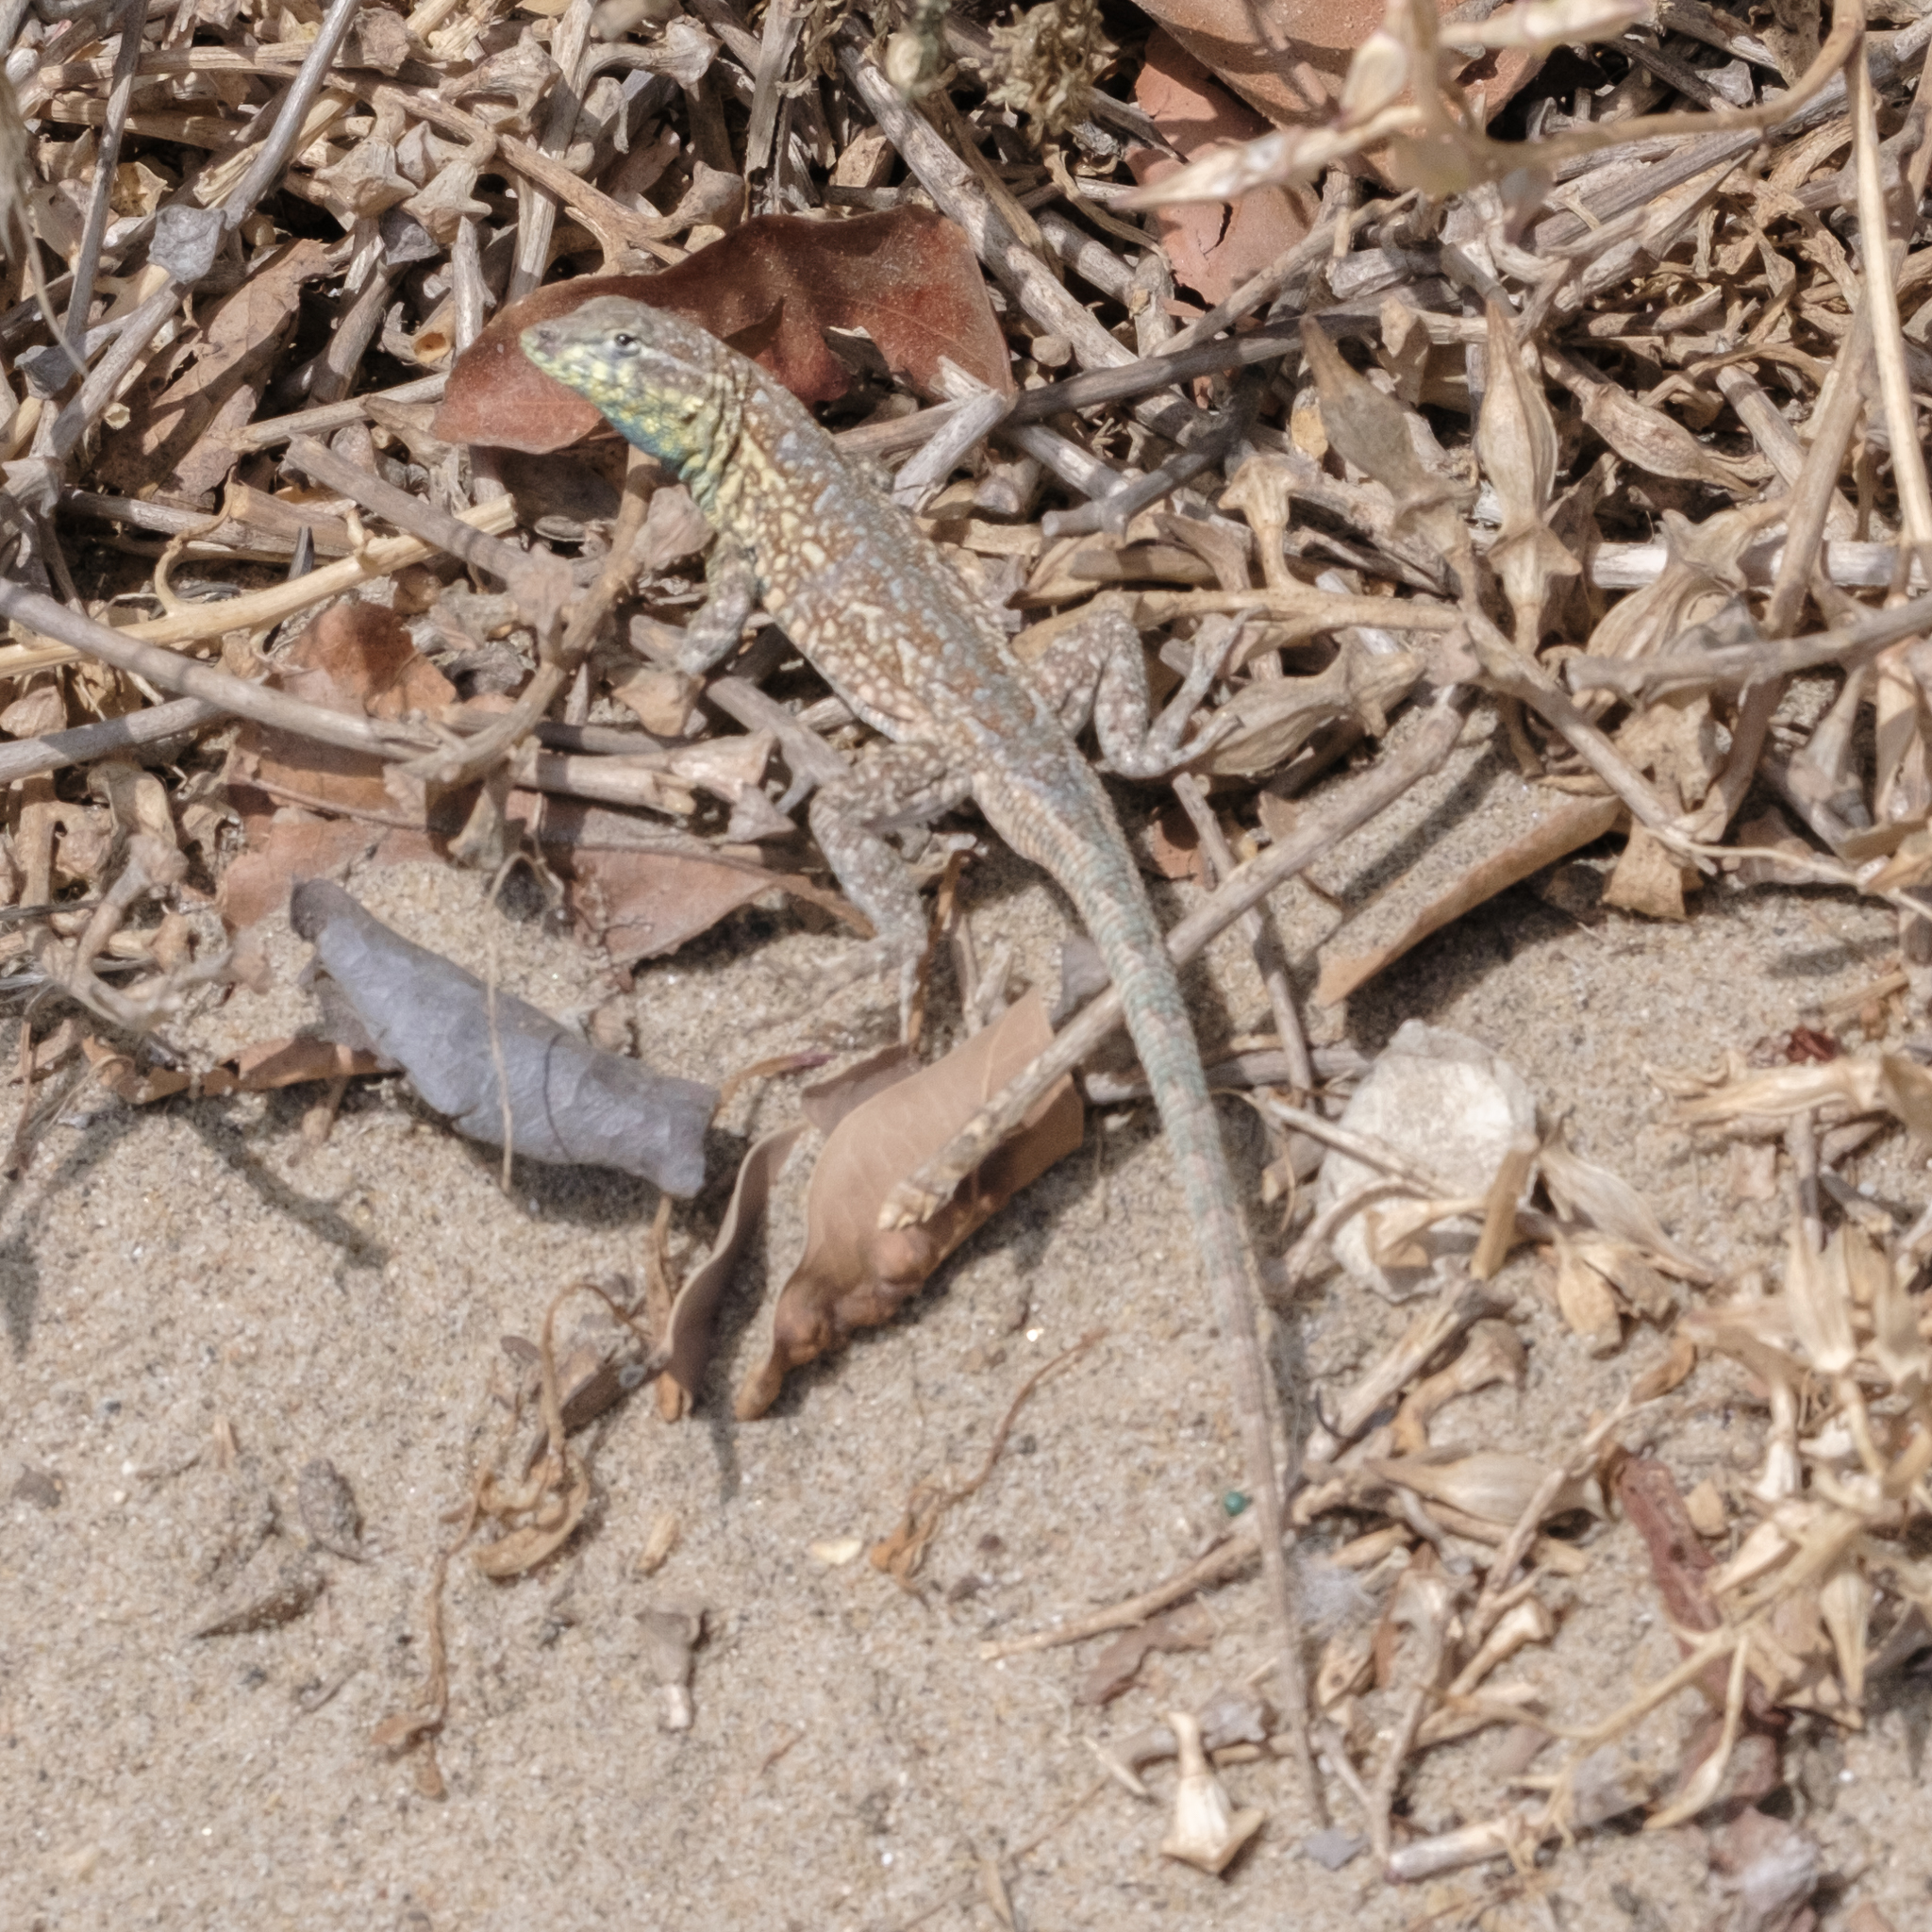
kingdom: Animalia
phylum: Chordata
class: Squamata
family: Phrynosomatidae
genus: Uta
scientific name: Uta stansburiana
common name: Side-blotched lizard
